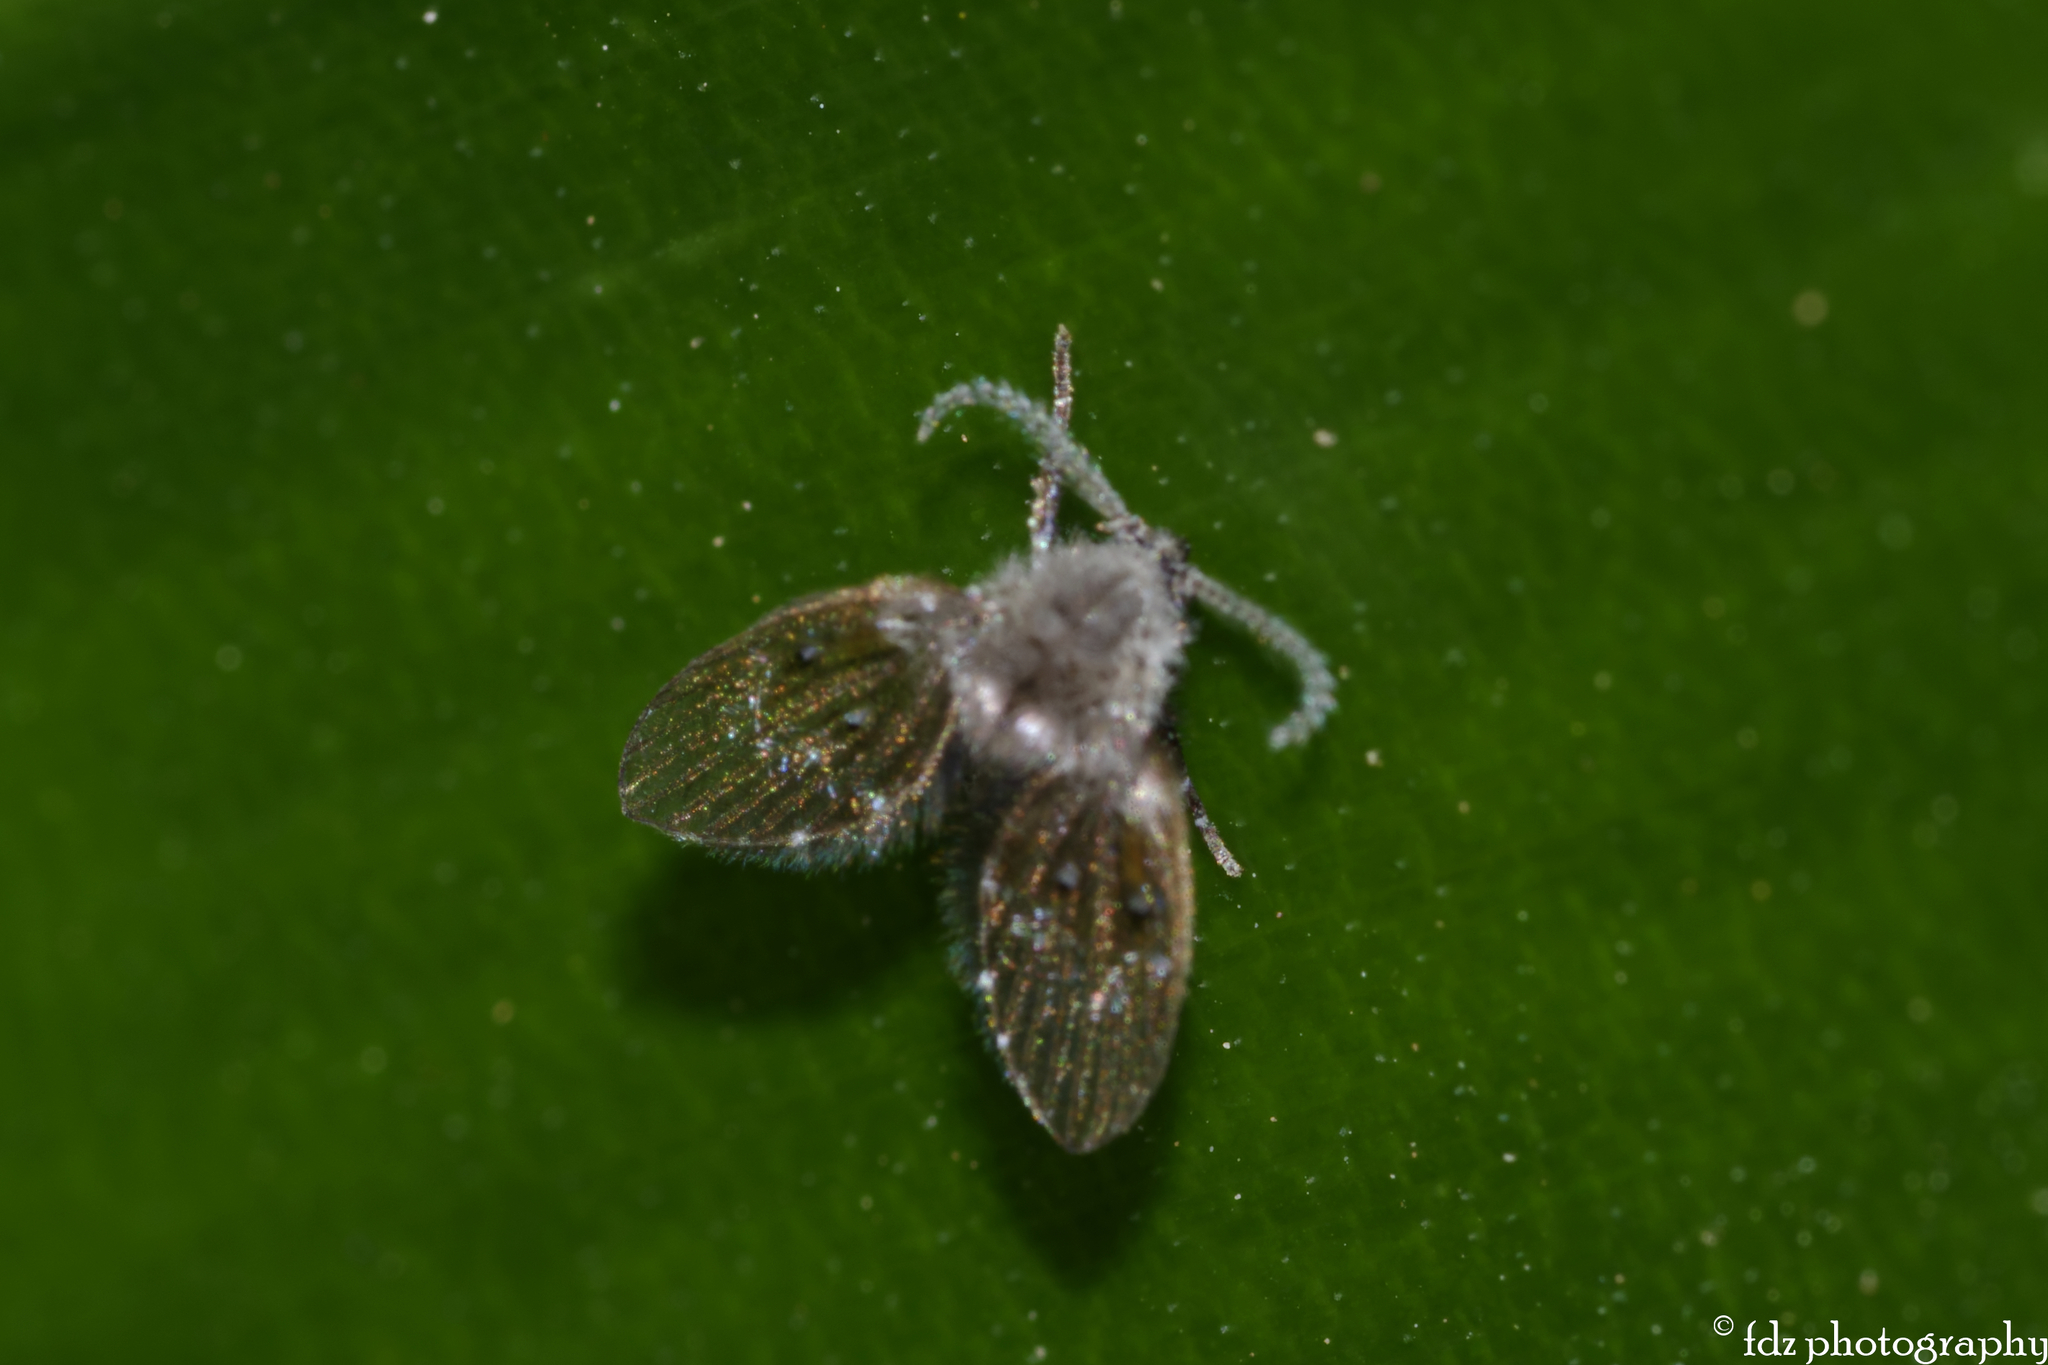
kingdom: Animalia
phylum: Arthropoda
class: Insecta
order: Diptera
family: Psychodidae
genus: Clogmia
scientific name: Clogmia albipunctatus
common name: White-spotted moth fly
